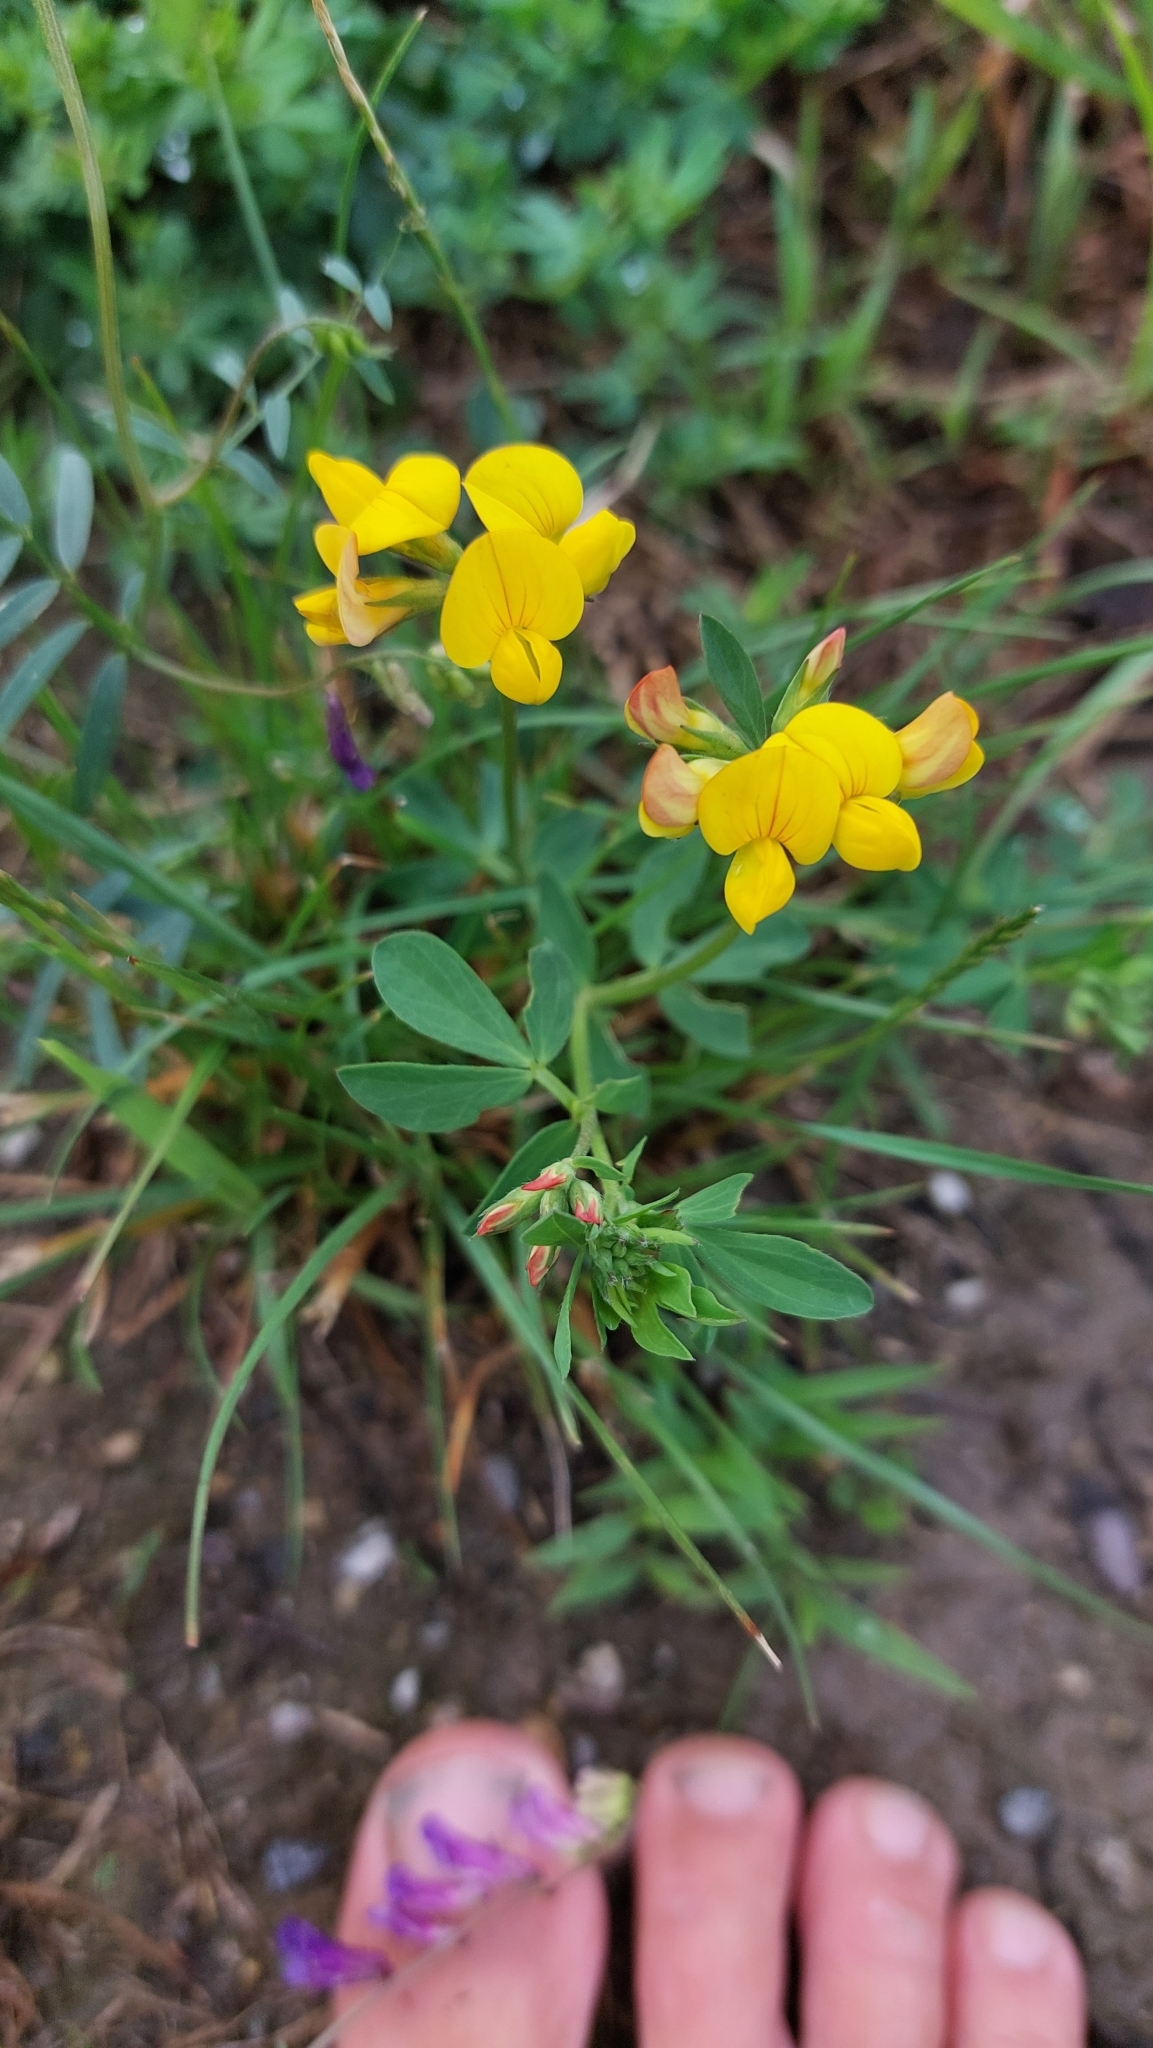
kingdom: Plantae
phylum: Tracheophyta
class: Magnoliopsida
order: Fabales
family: Fabaceae
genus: Lotus
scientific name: Lotus corniculatus
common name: Common bird's-foot-trefoil
